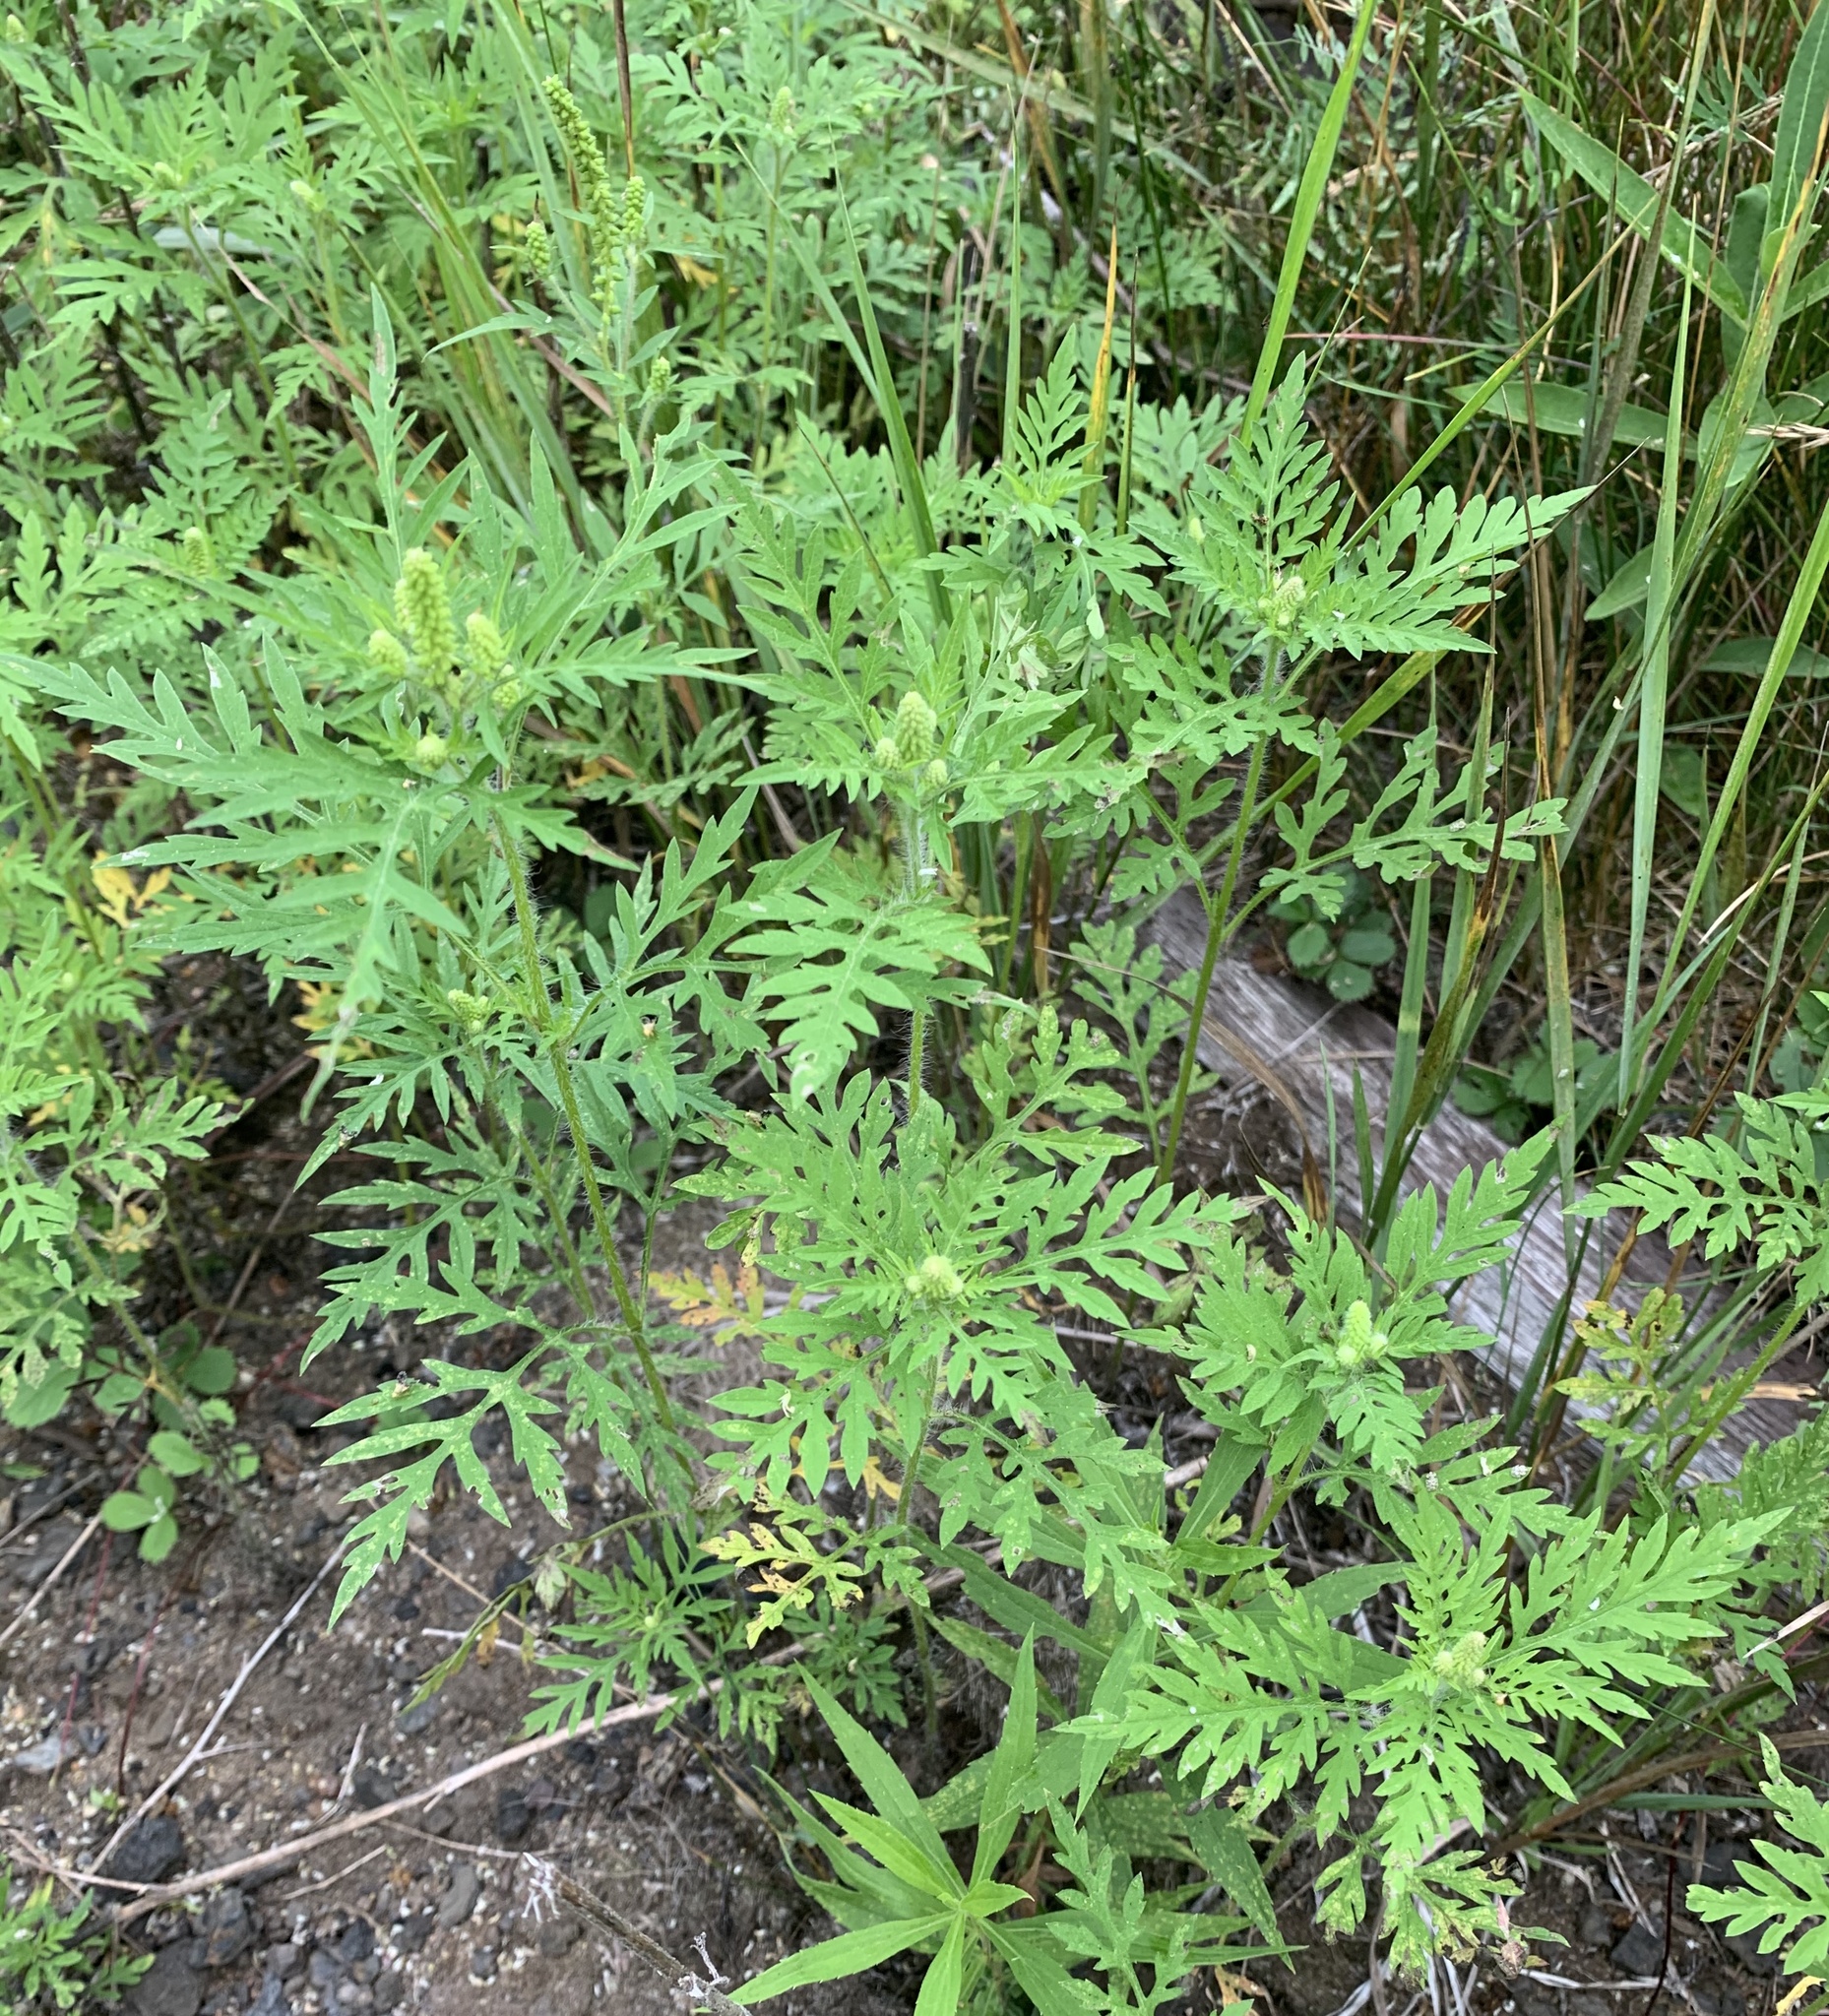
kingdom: Plantae
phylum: Tracheophyta
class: Magnoliopsida
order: Asterales
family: Asteraceae
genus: Ambrosia
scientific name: Ambrosia artemisiifolia
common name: Annual ragweed
